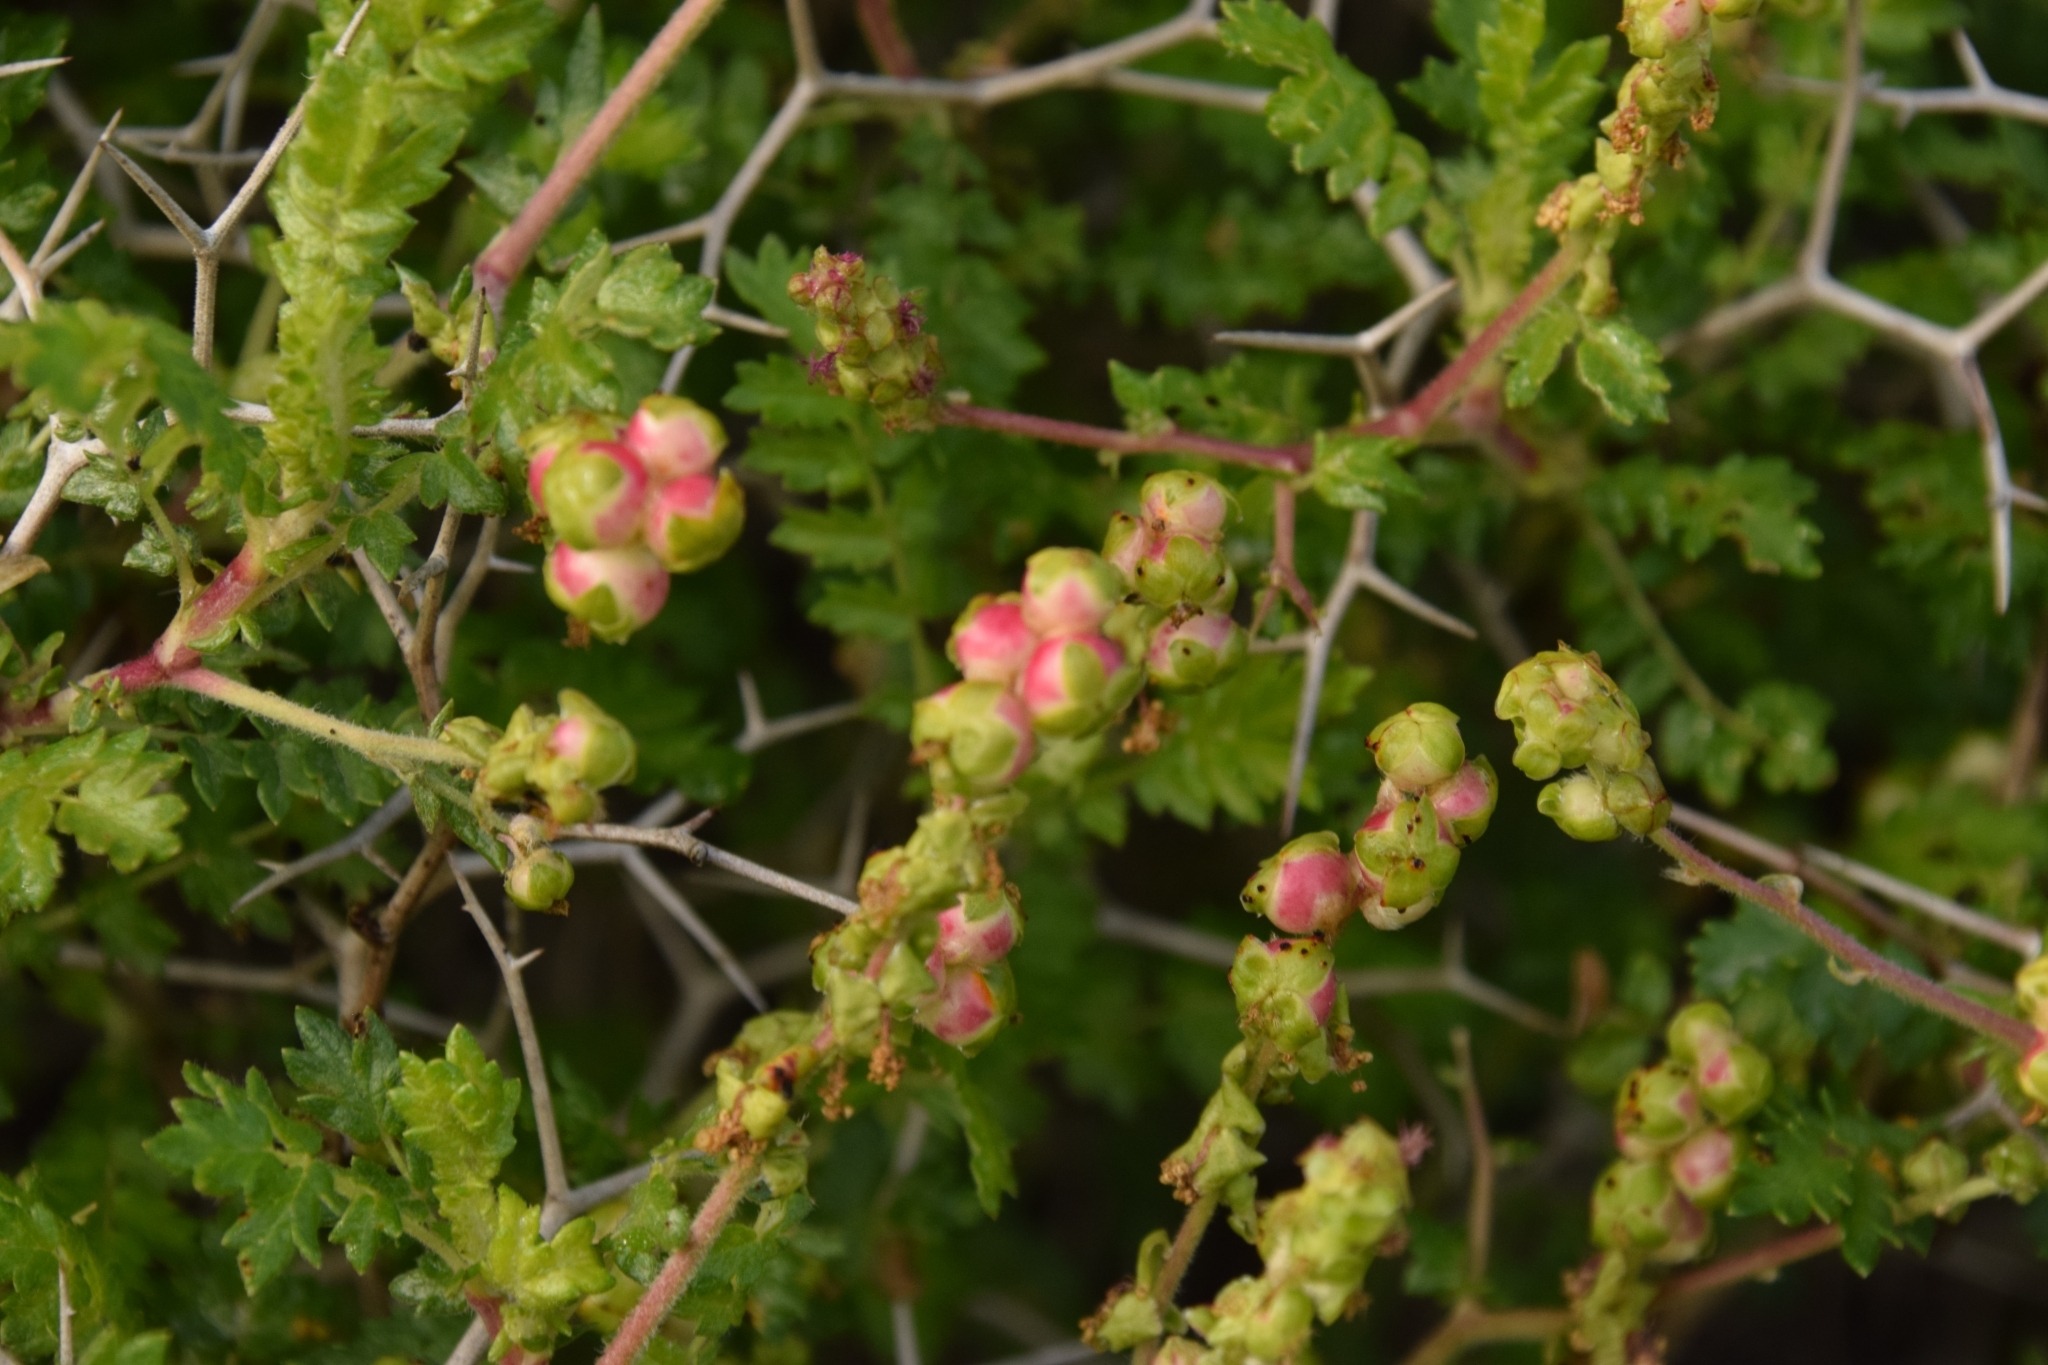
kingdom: Plantae
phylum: Tracheophyta
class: Magnoliopsida
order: Rosales
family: Rosaceae
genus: Sarcopoterium
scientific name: Sarcopoterium spinosum
